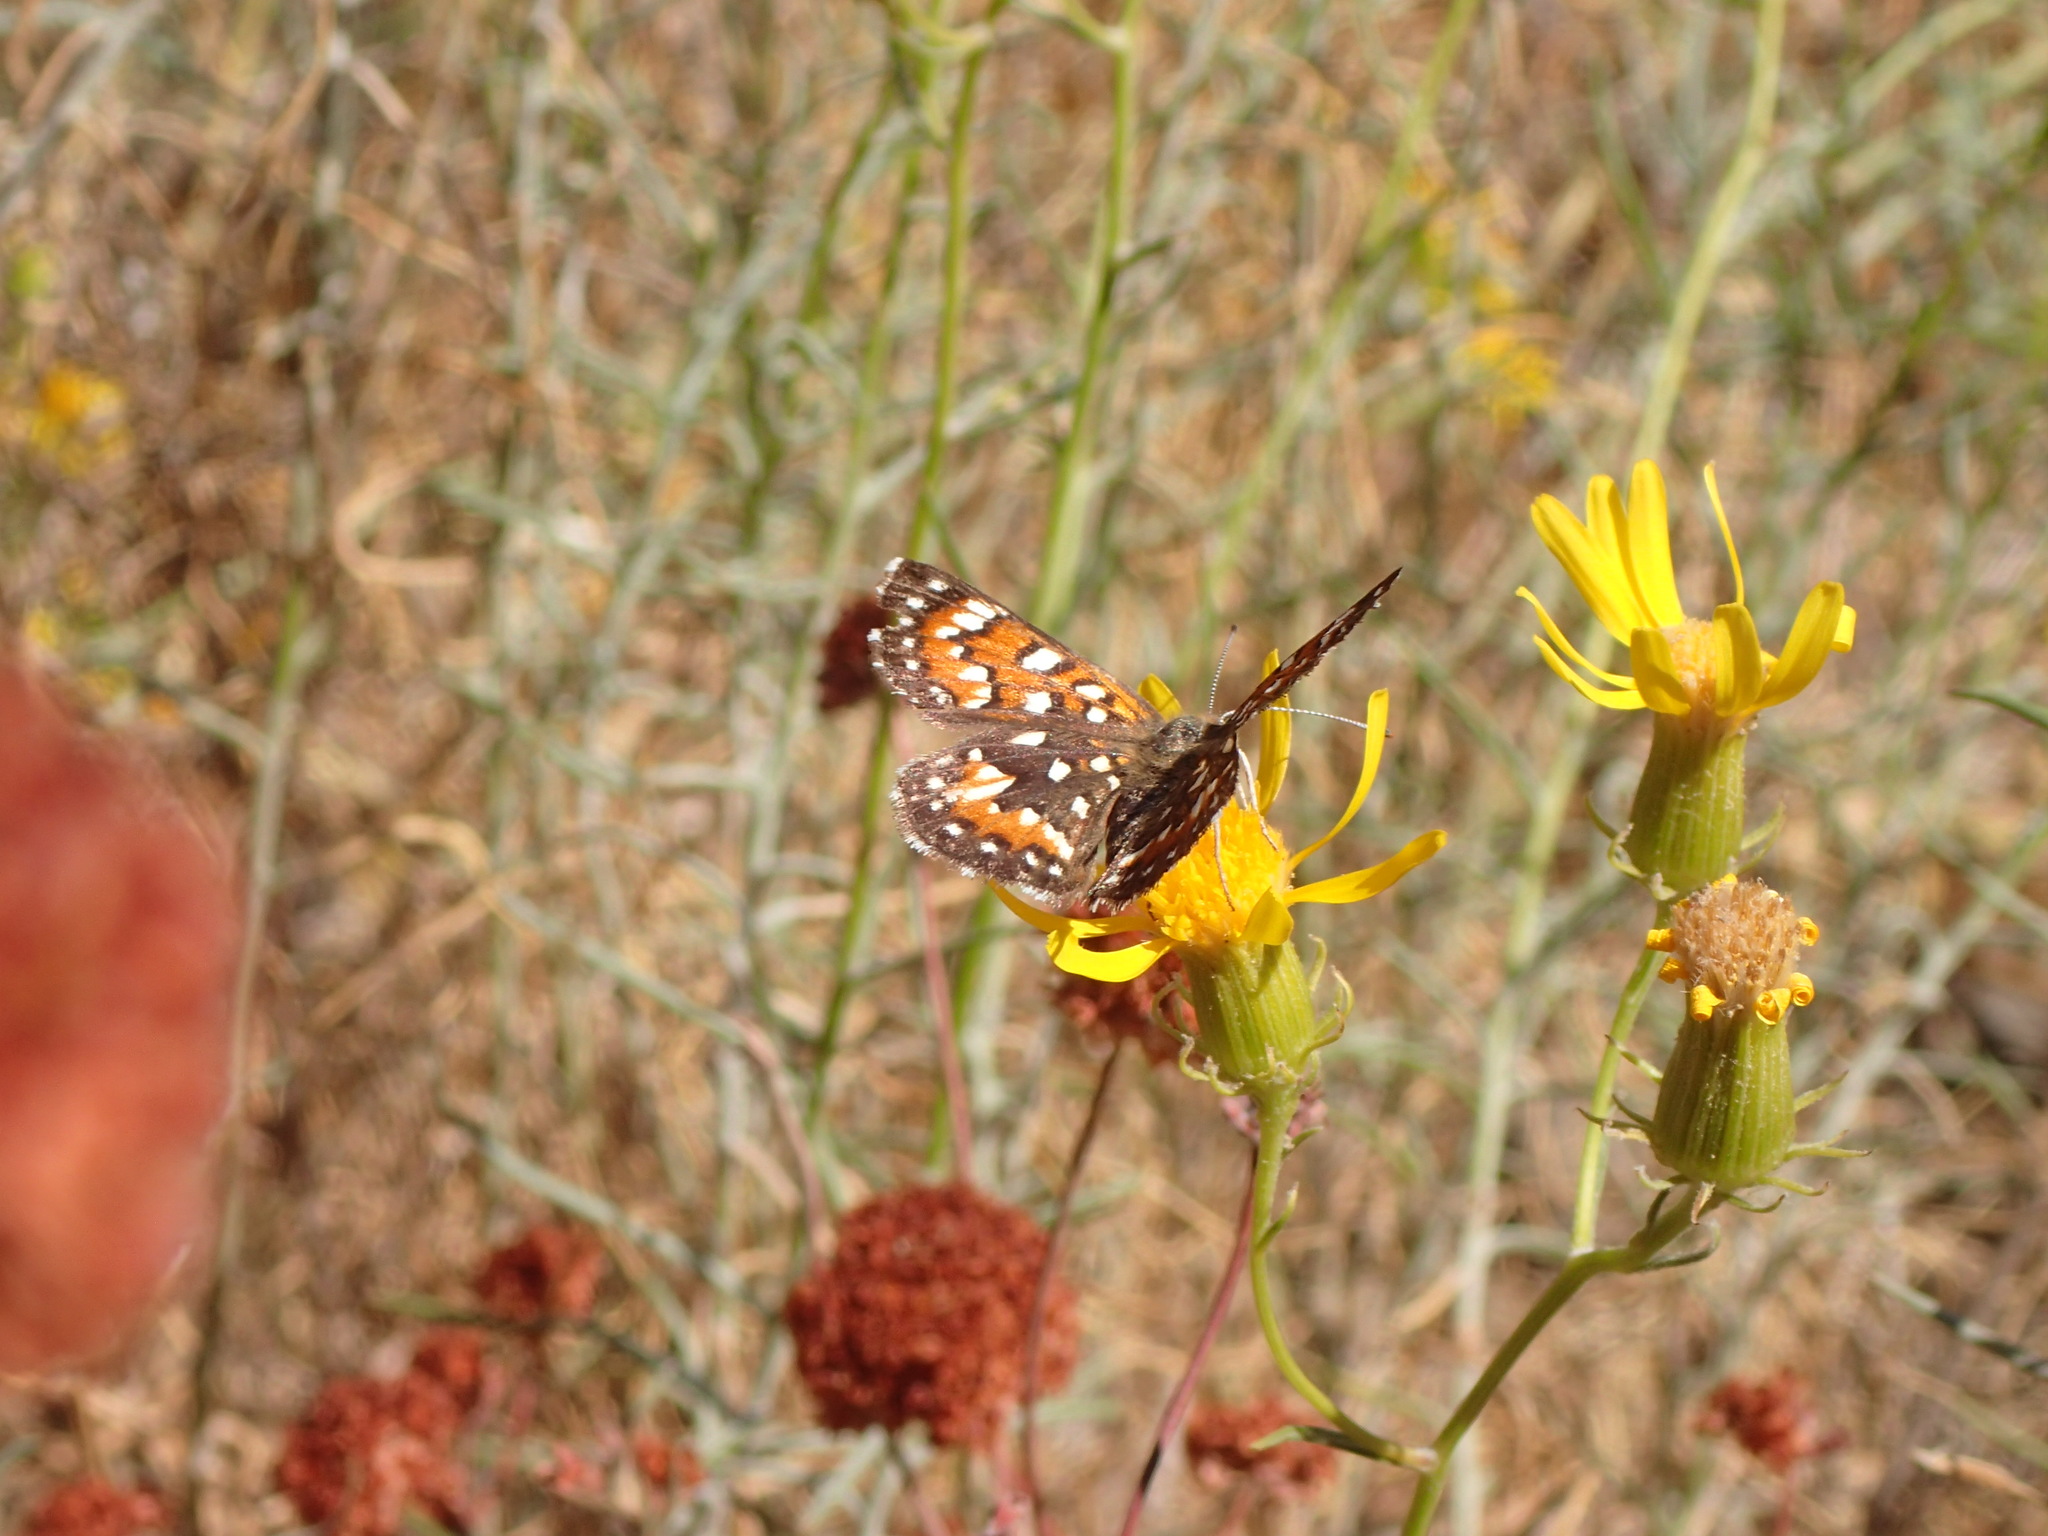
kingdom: Animalia
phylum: Arthropoda
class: Insecta
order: Lepidoptera
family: Riodinidae
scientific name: Riodinidae
